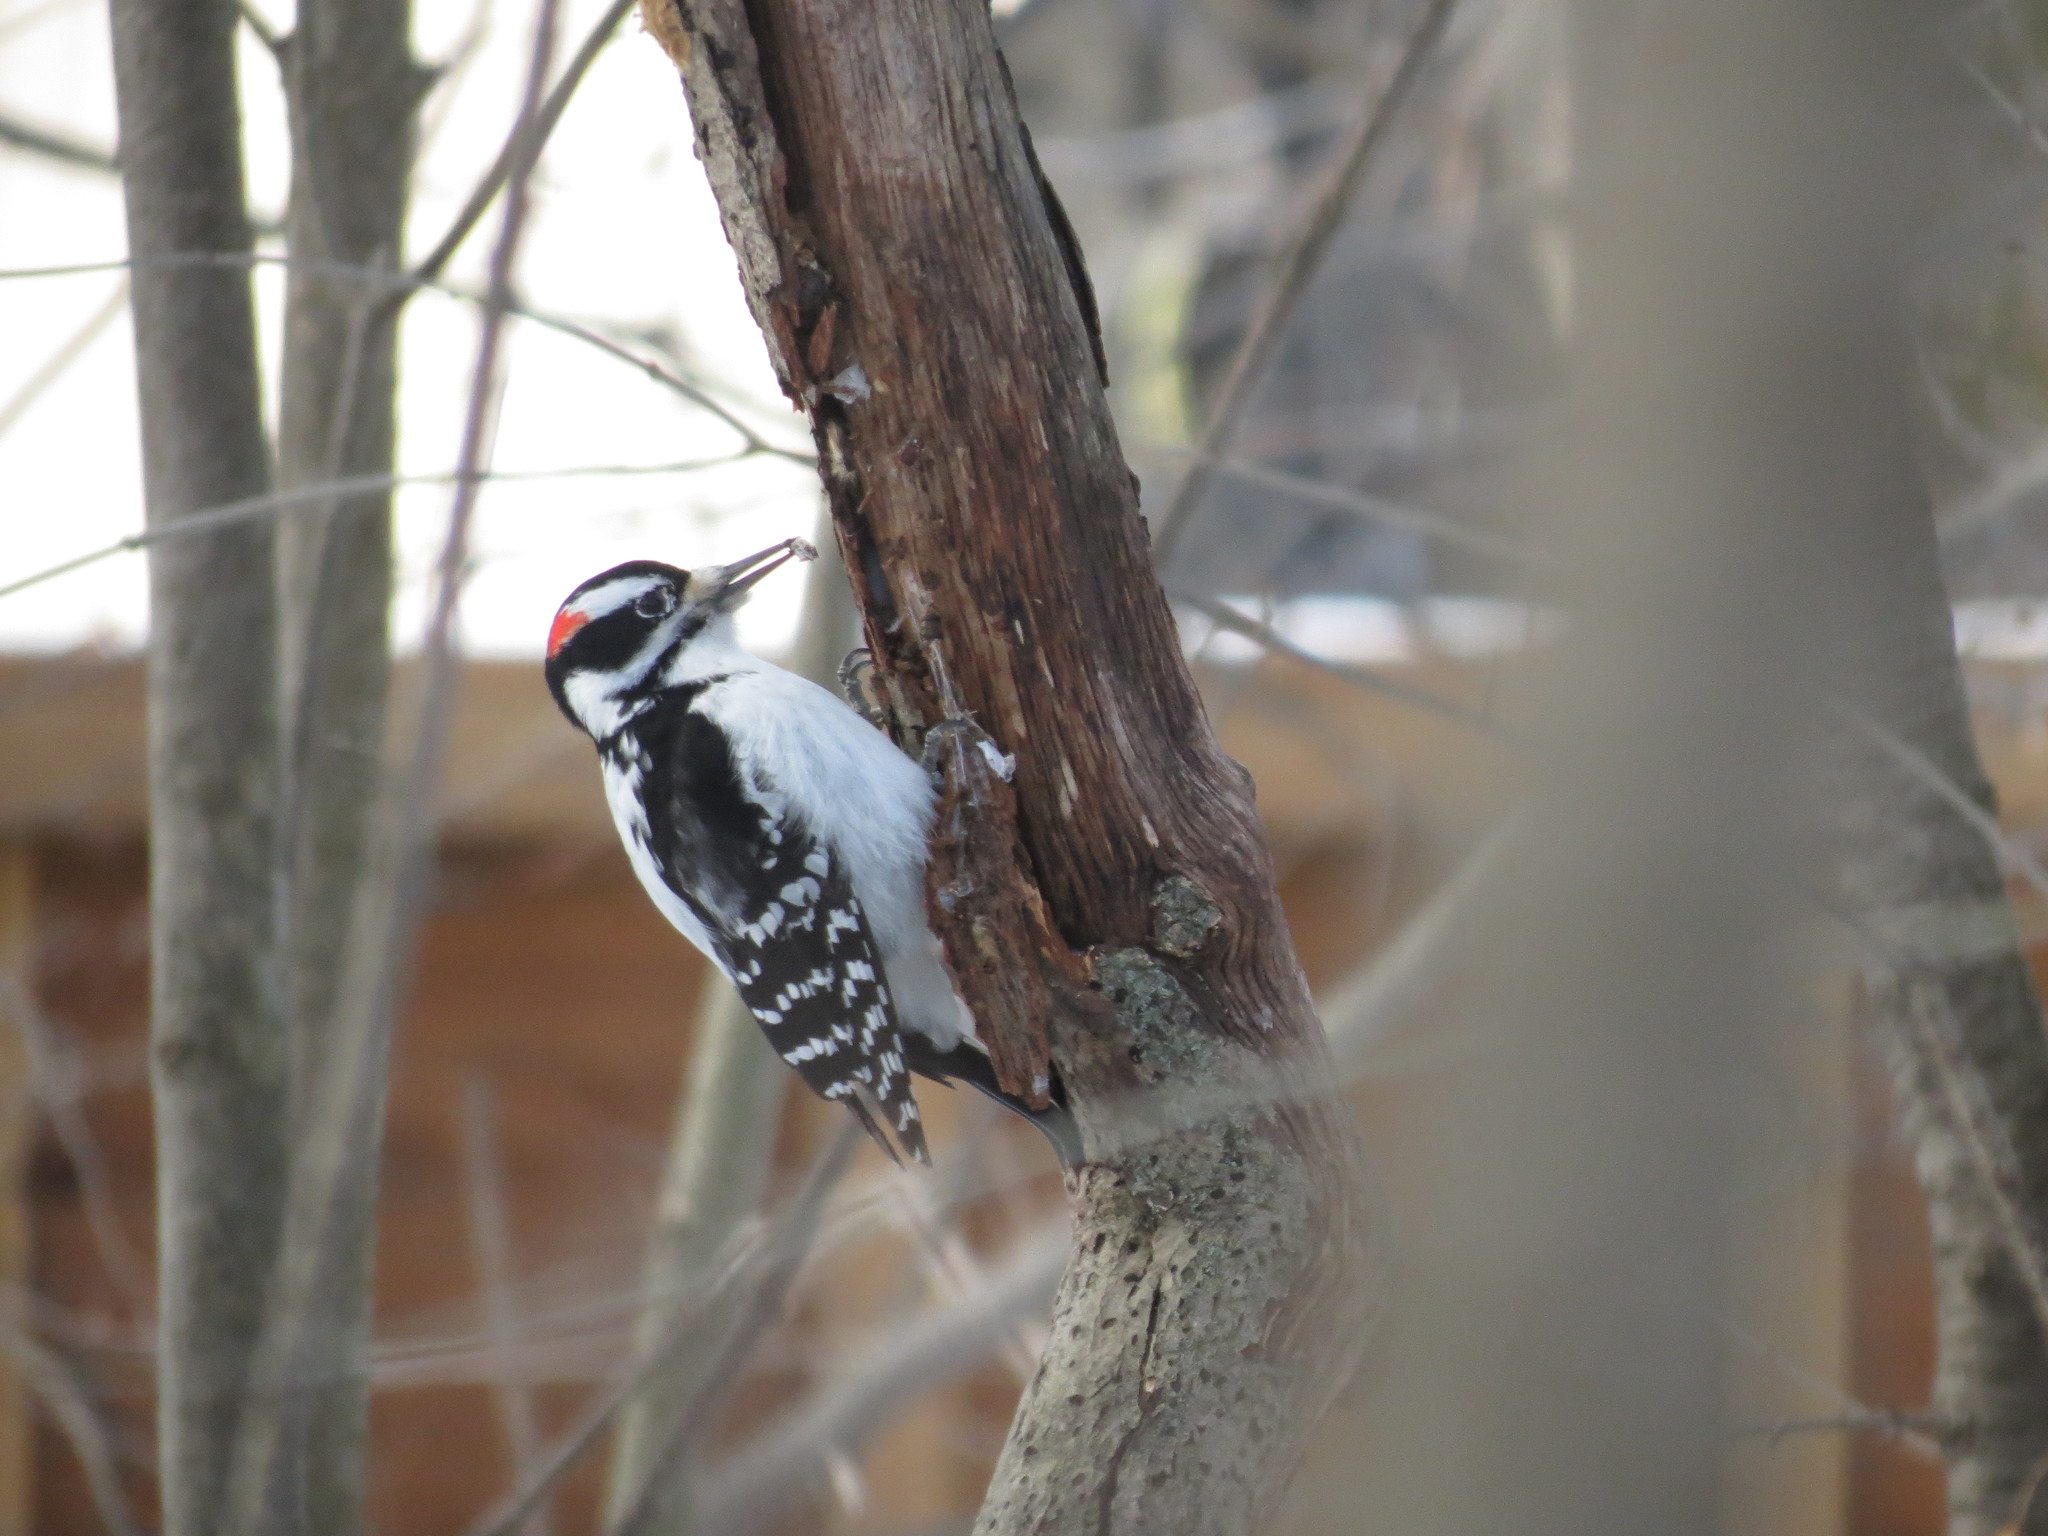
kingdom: Animalia
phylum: Chordata
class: Aves
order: Piciformes
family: Picidae
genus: Leuconotopicus
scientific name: Leuconotopicus villosus
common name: Hairy woodpecker
